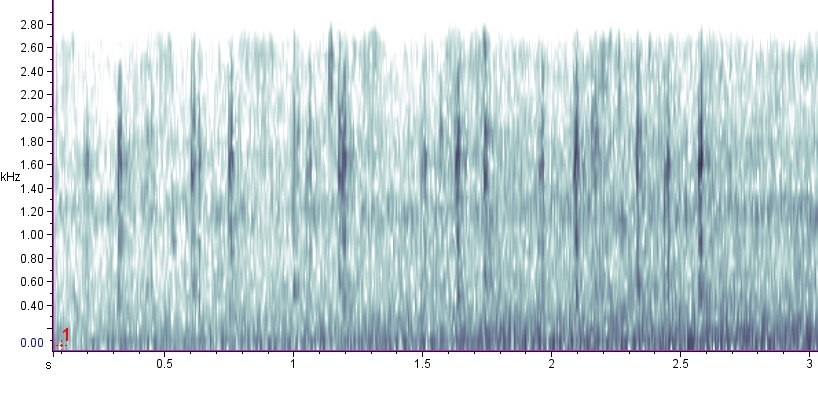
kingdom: Animalia
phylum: Chordata
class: Amphibia
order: Anura
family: Ranidae
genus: Lithobates
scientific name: Lithobates virgatipes
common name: Carpenter frog
